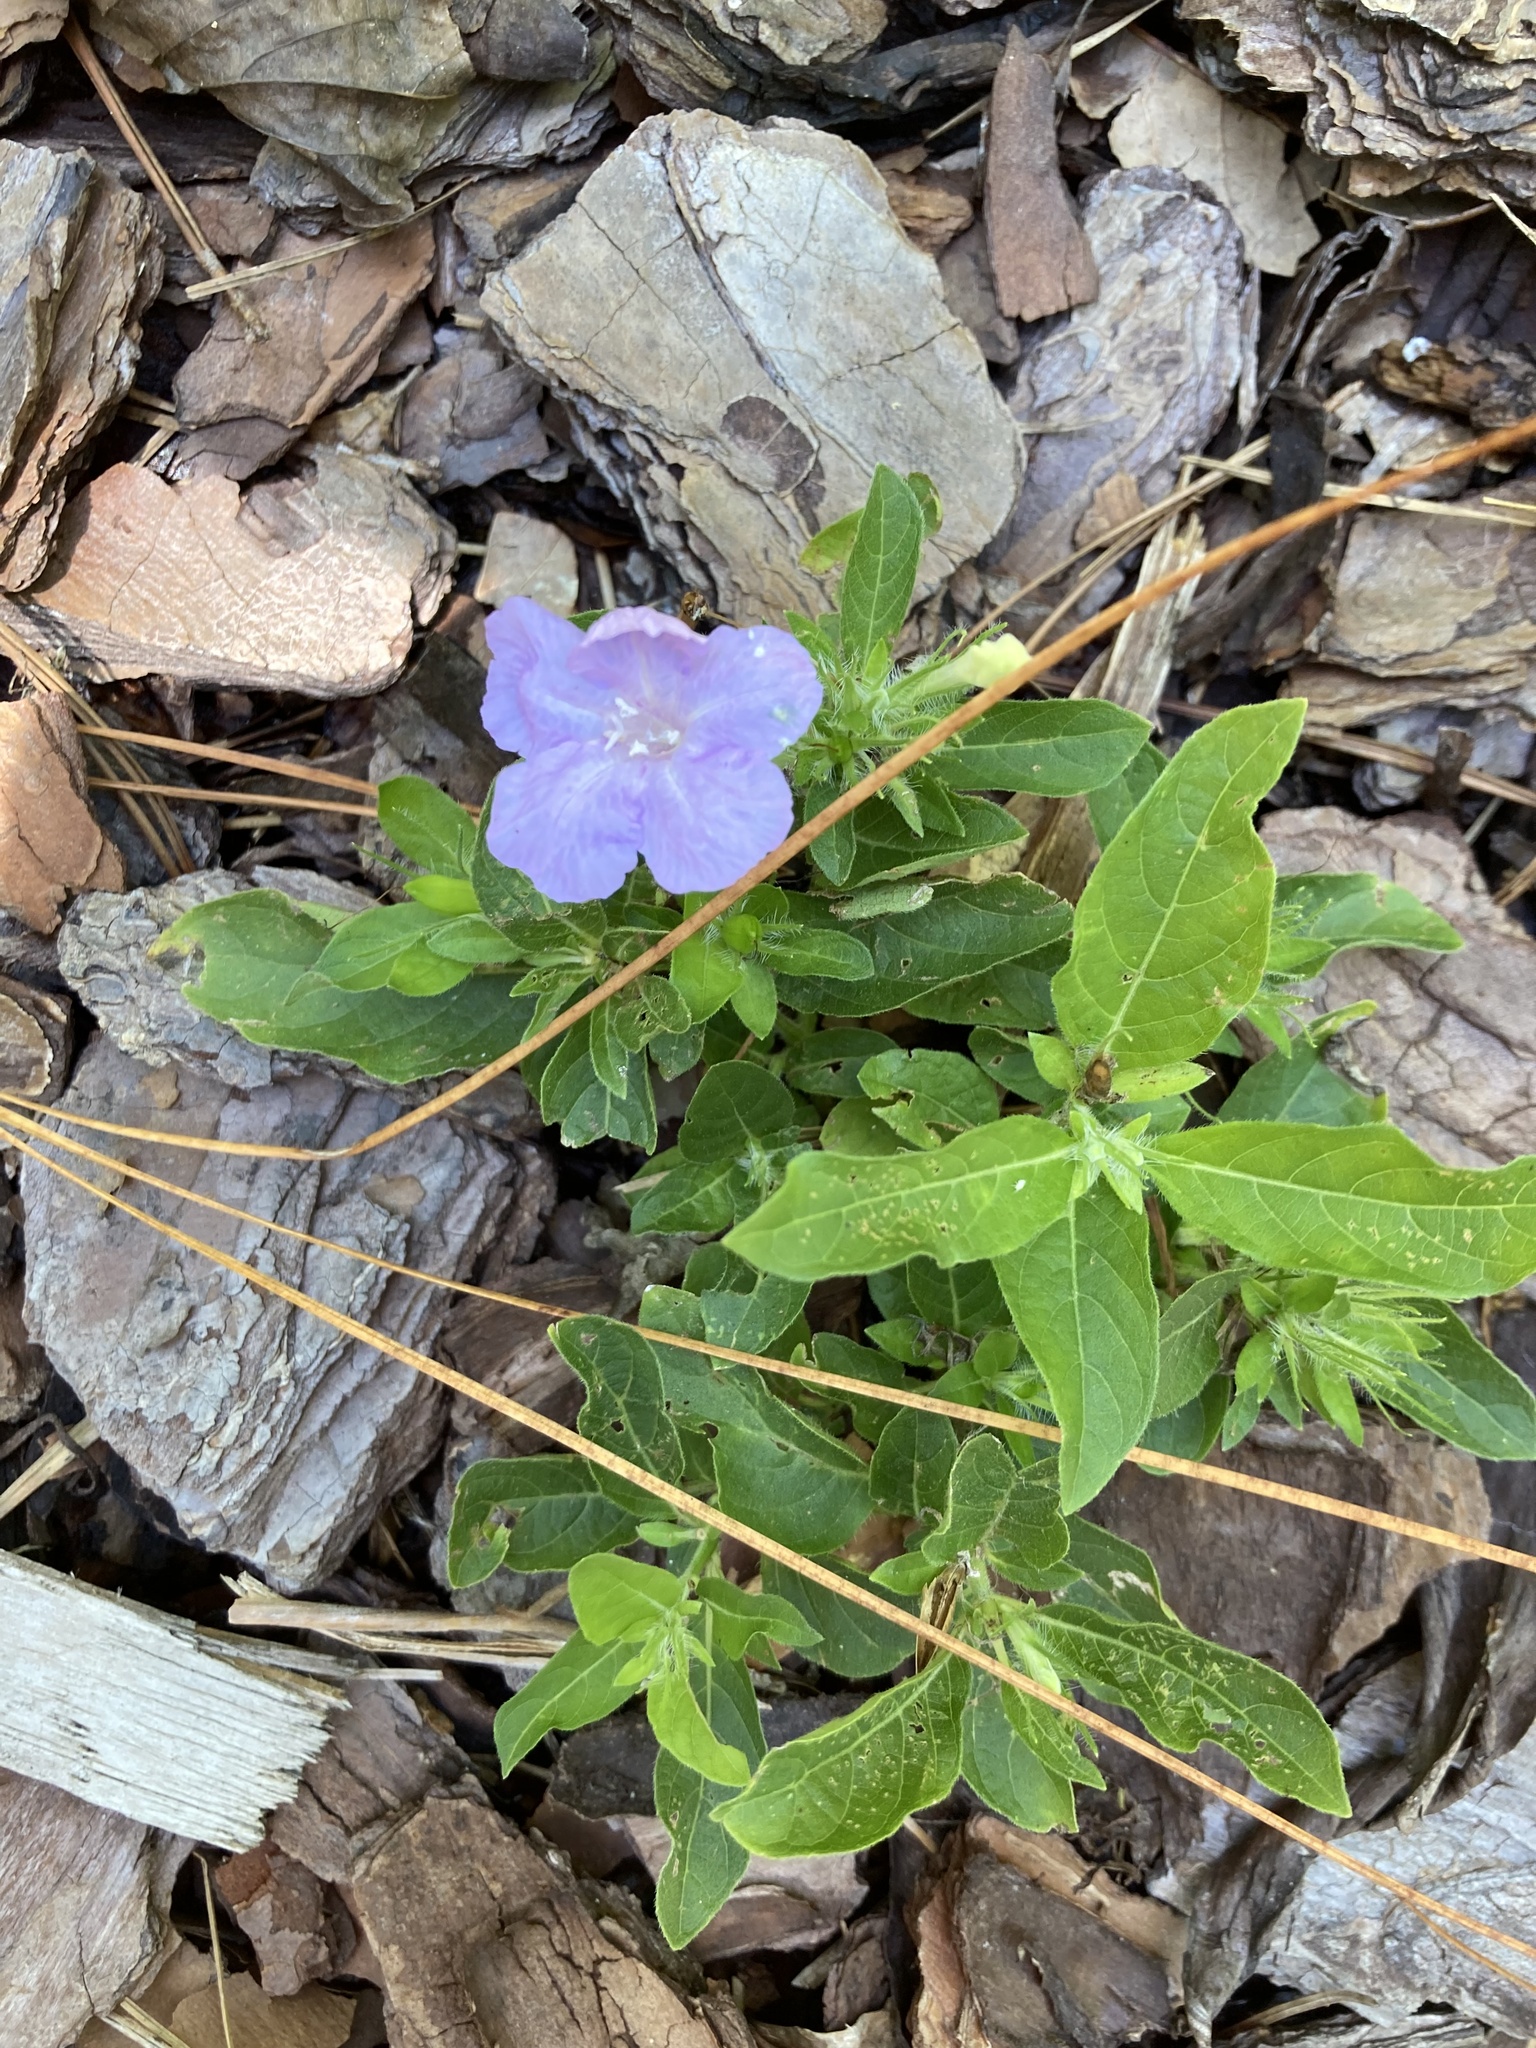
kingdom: Plantae
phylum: Tracheophyta
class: Magnoliopsida
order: Lamiales
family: Acanthaceae
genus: Ruellia
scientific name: Ruellia caroliniensis
